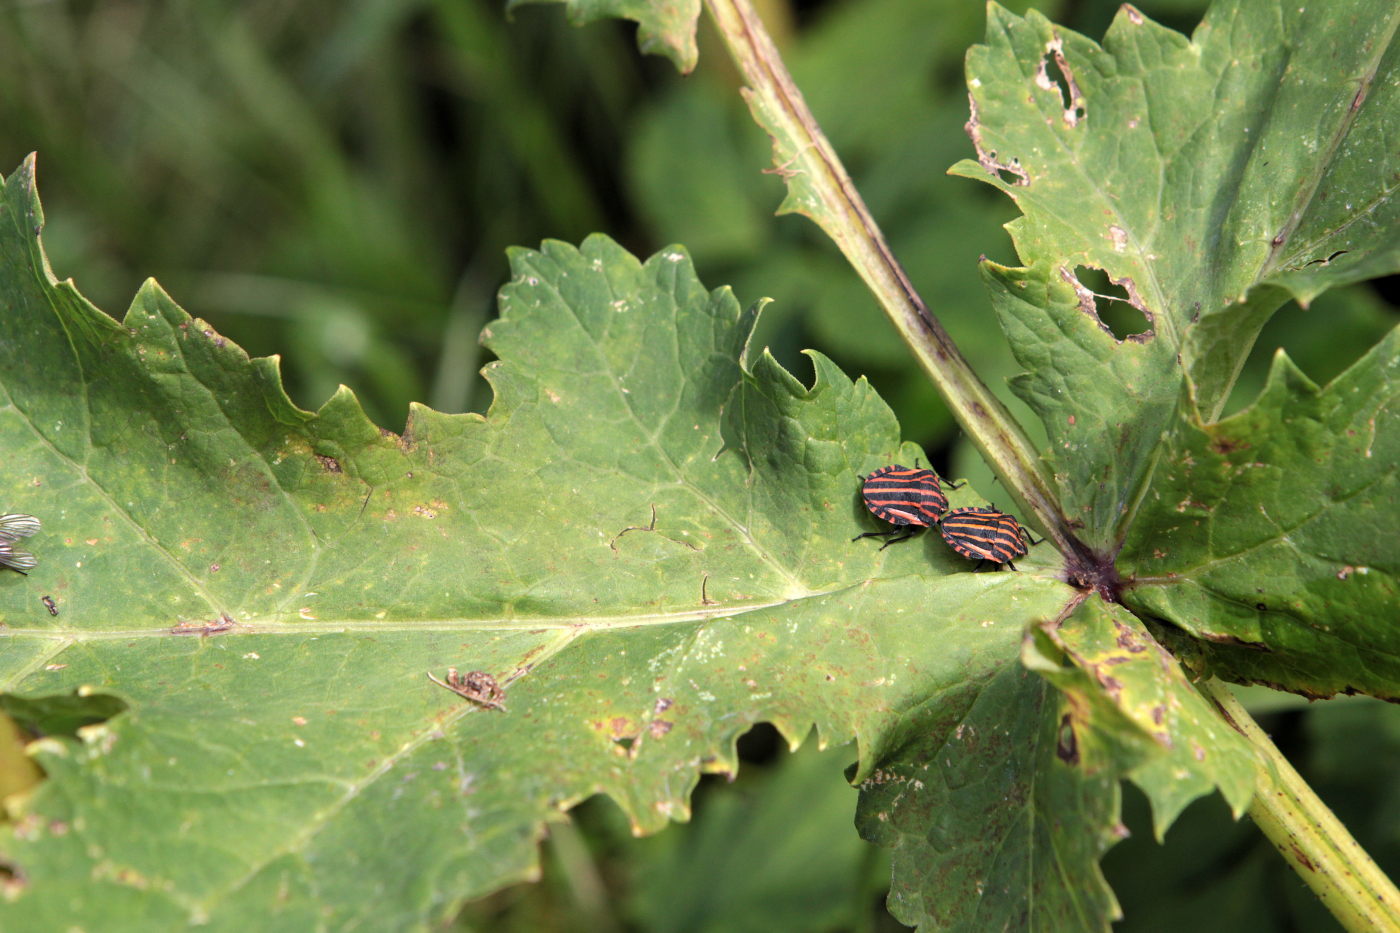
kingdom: Animalia
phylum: Arthropoda
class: Insecta
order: Hemiptera
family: Pentatomidae
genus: Graphosoma
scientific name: Graphosoma italicum
